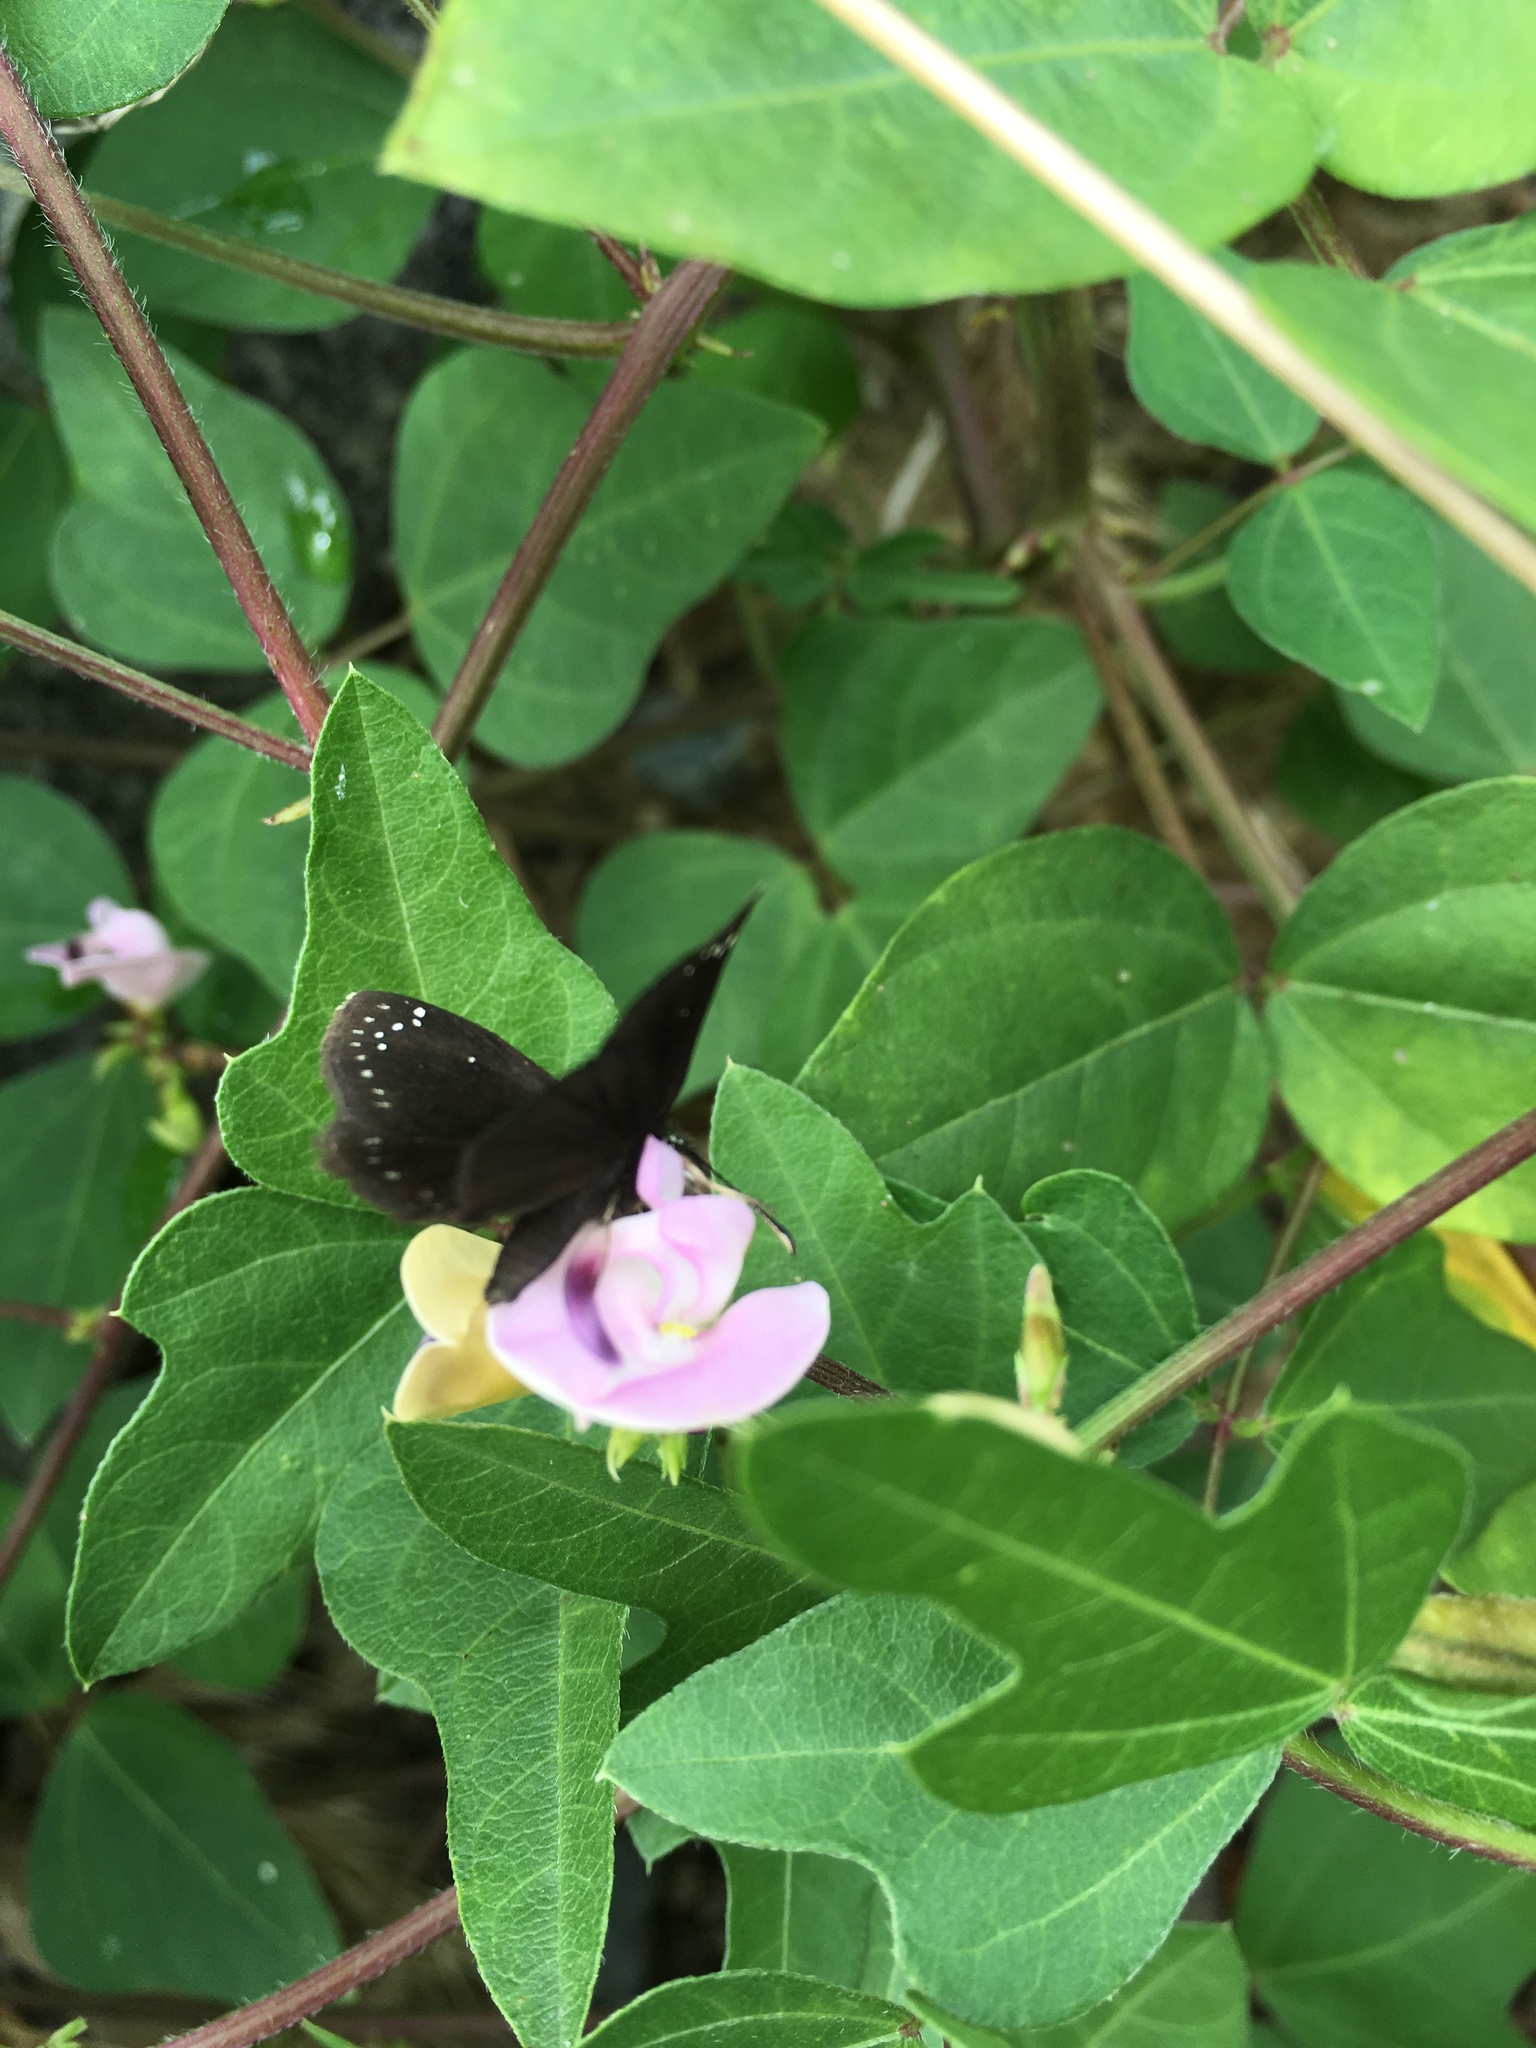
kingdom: Plantae
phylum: Tracheophyta
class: Magnoliopsida
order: Fabales
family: Fabaceae
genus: Strophostyles
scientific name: Strophostyles helvola
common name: Trailing wild bean
